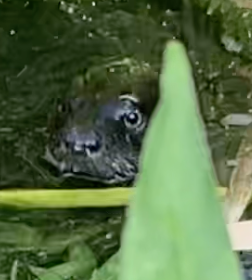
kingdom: Animalia
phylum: Chordata
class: Mammalia
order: Carnivora
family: Mustelidae
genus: Lontra
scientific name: Lontra canadensis
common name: North american river otter
